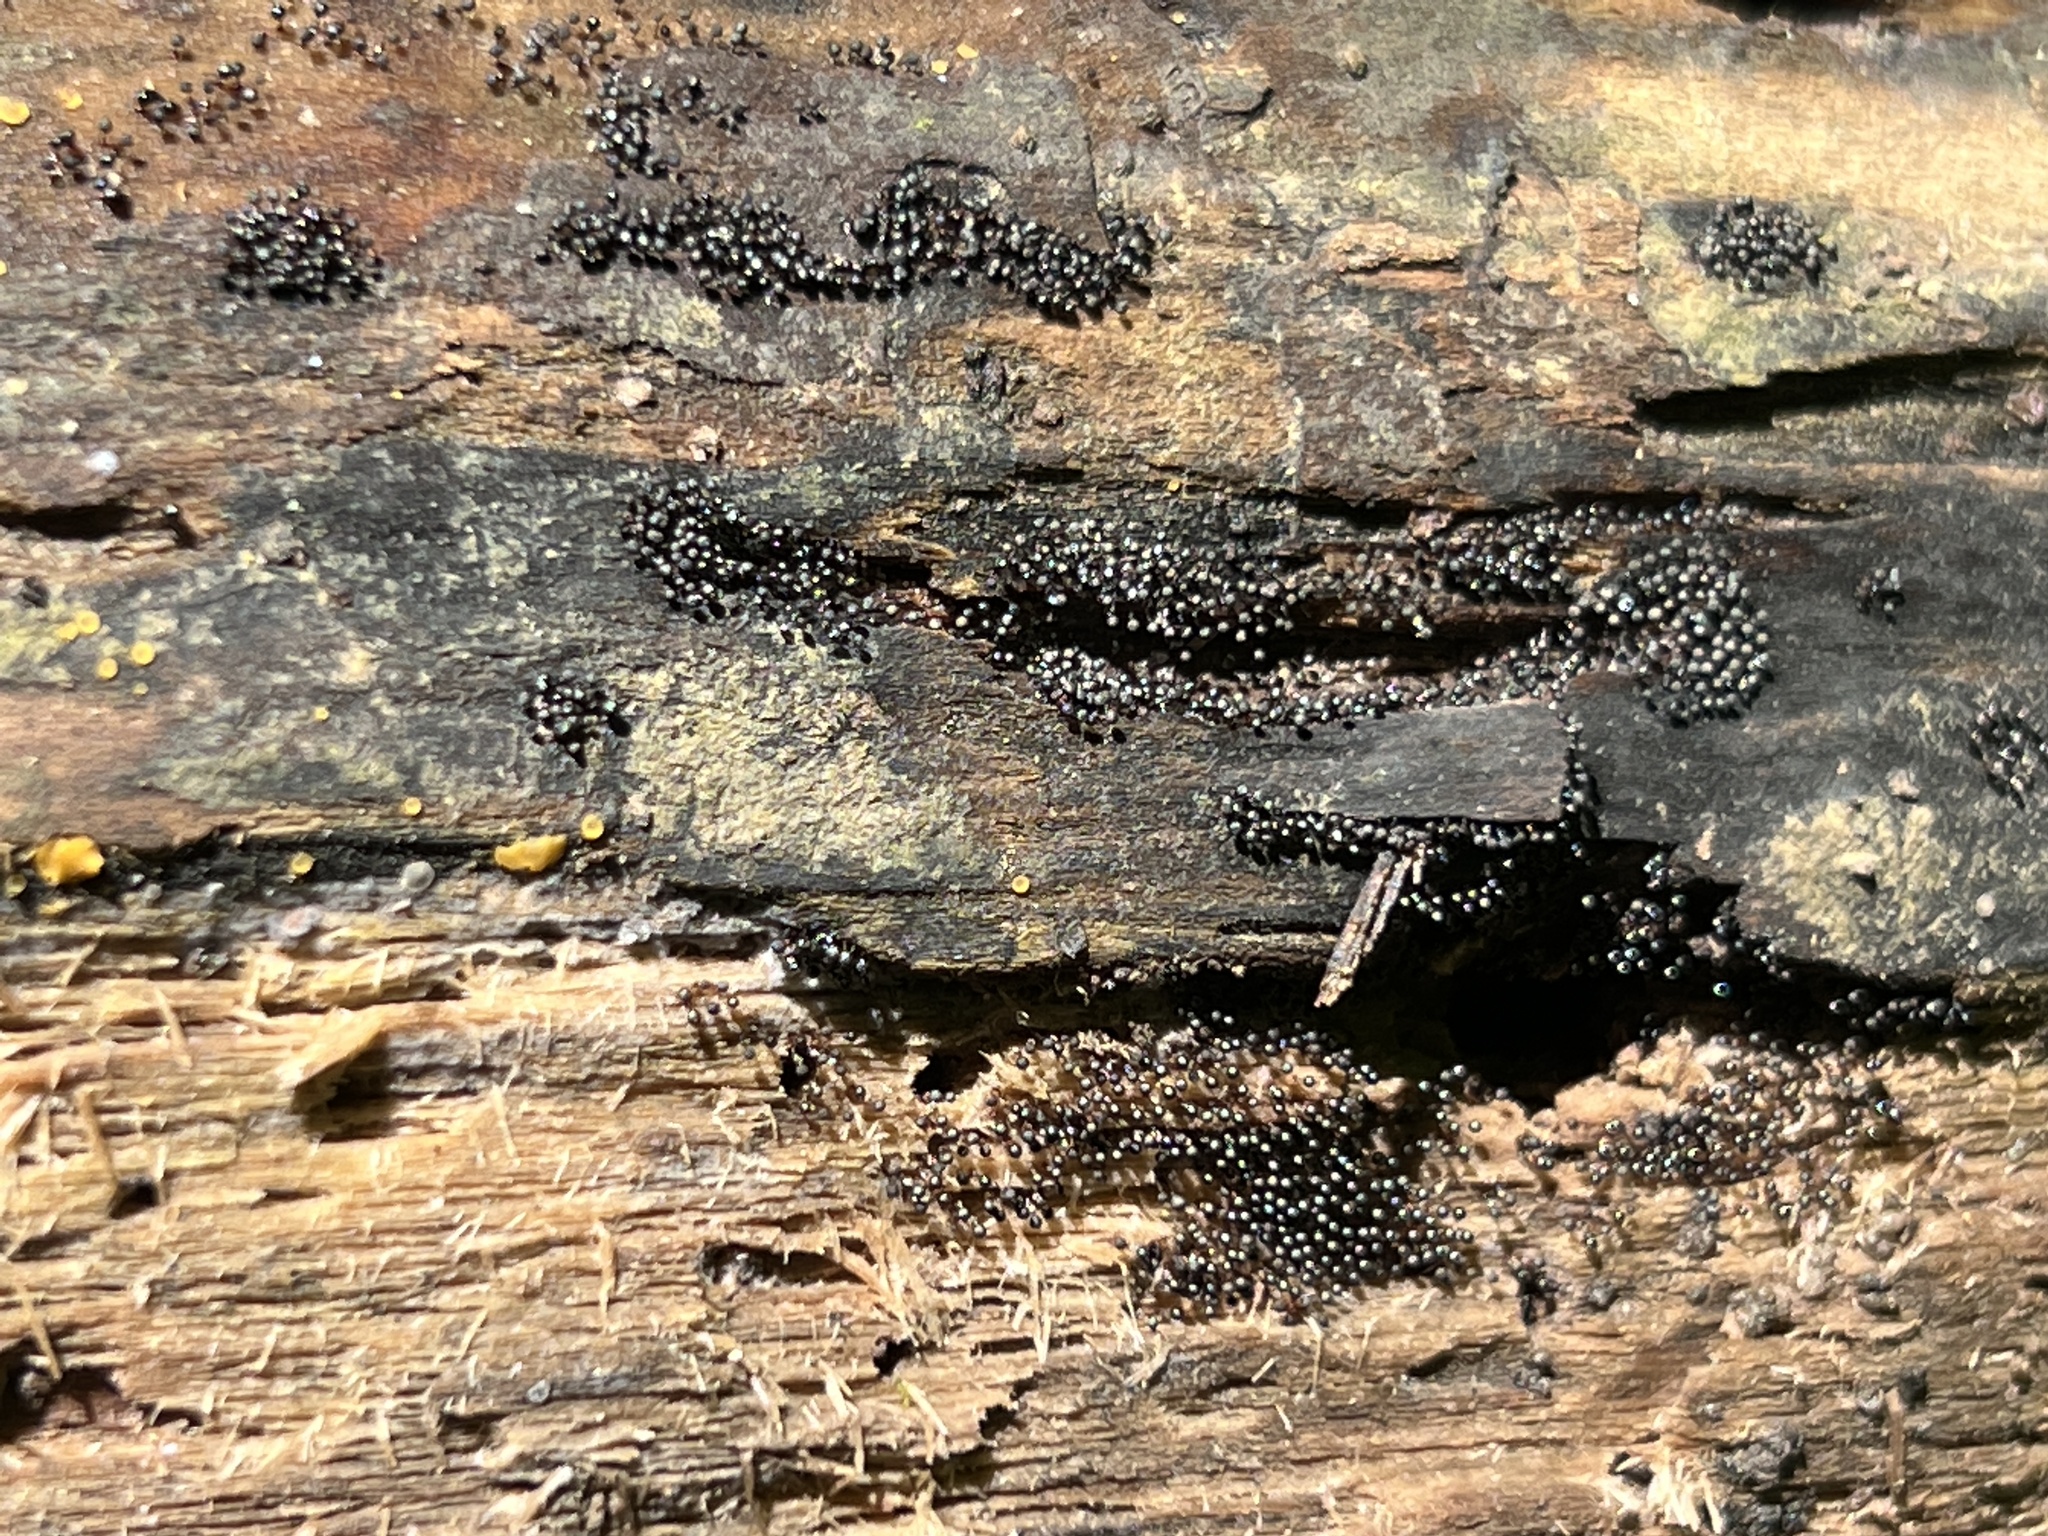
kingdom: Protozoa
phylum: Mycetozoa
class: Myxomycetes
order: Trichiales
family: Trichiaceae
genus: Metatrichia
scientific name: Metatrichia vesparia
